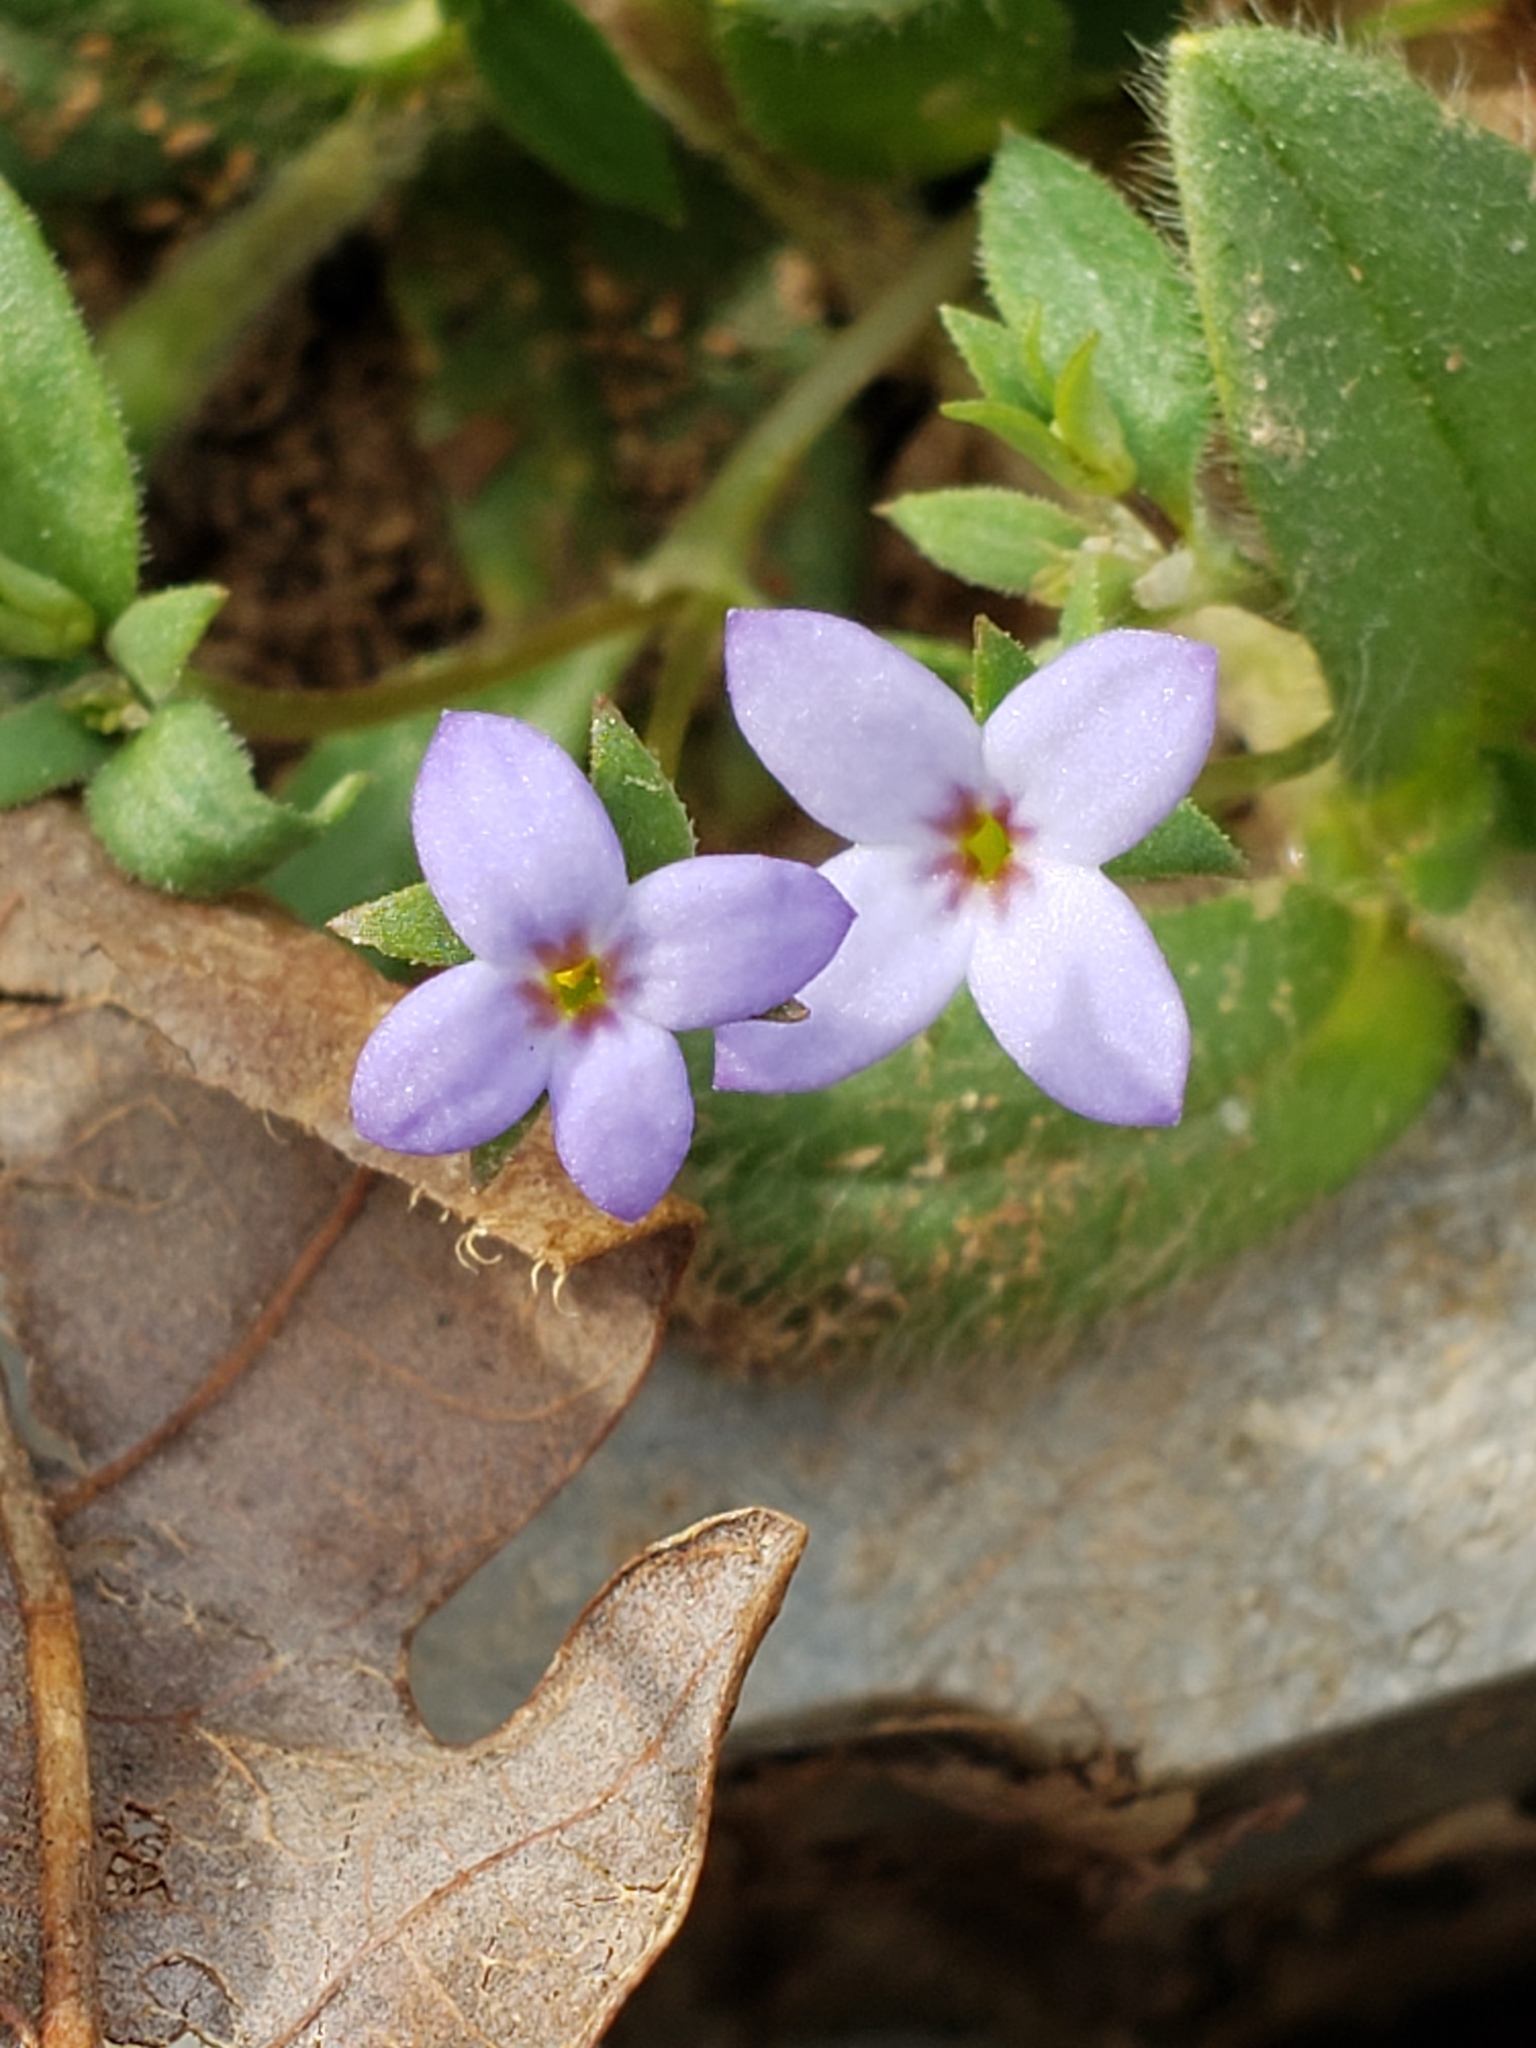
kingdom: Plantae
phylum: Tracheophyta
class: Magnoliopsida
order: Gentianales
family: Rubiaceae
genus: Houstonia
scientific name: Houstonia pusilla
